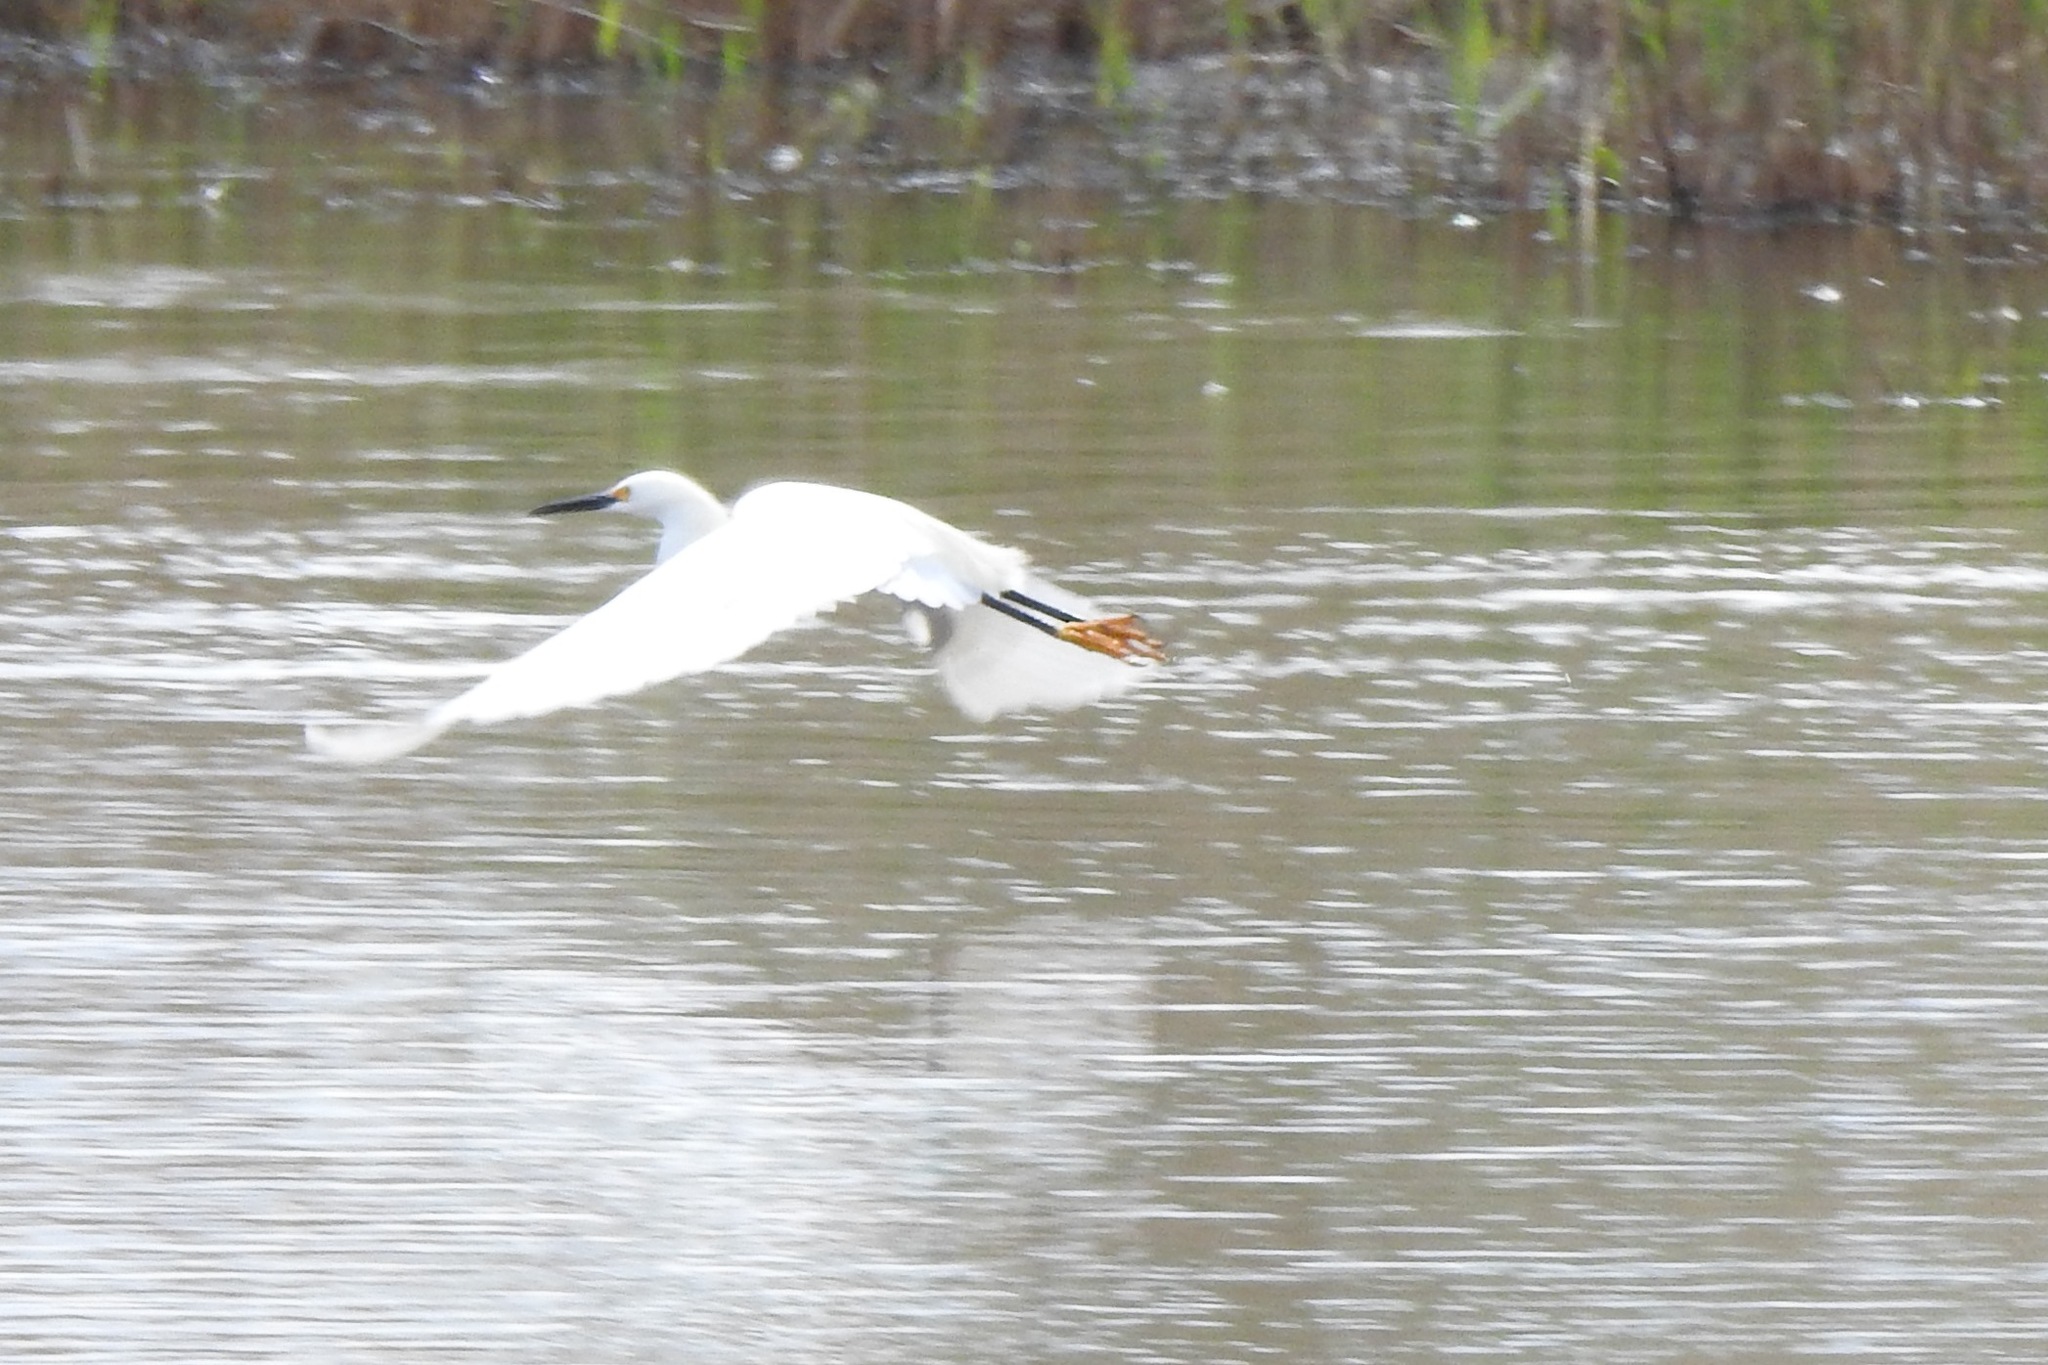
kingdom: Animalia
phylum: Chordata
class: Aves
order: Pelecaniformes
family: Ardeidae
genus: Egretta
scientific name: Egretta thula
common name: Snowy egret
